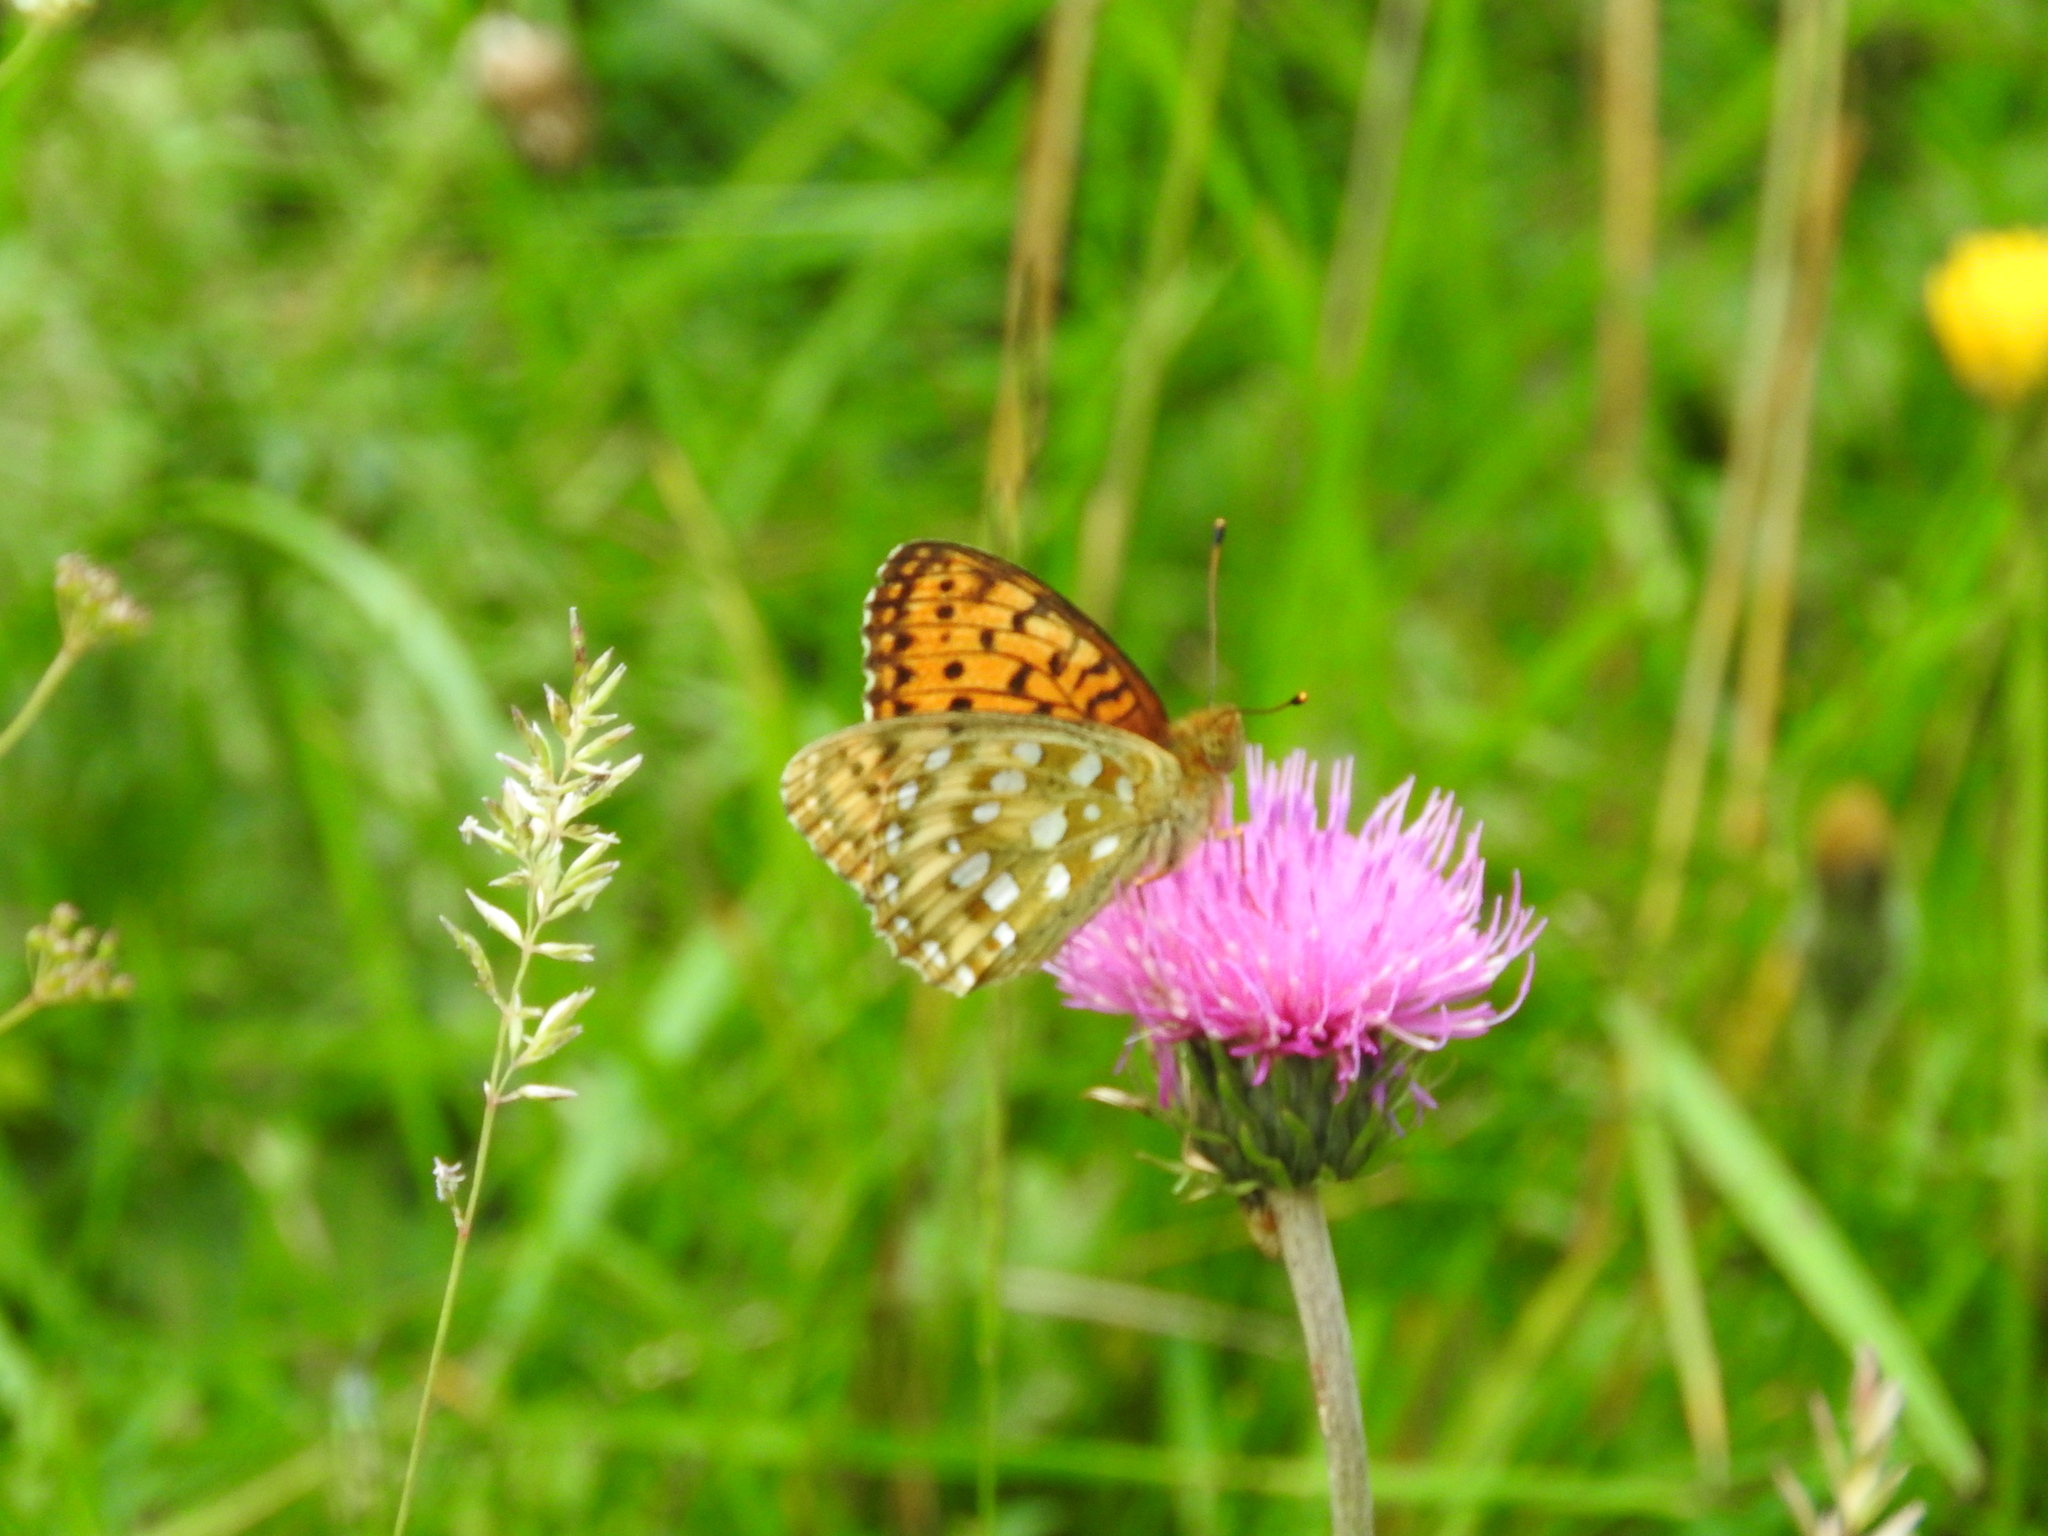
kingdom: Animalia
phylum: Arthropoda
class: Insecta
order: Lepidoptera
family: Nymphalidae
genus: Speyeria
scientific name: Speyeria aglaja
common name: Dark green fritillary
